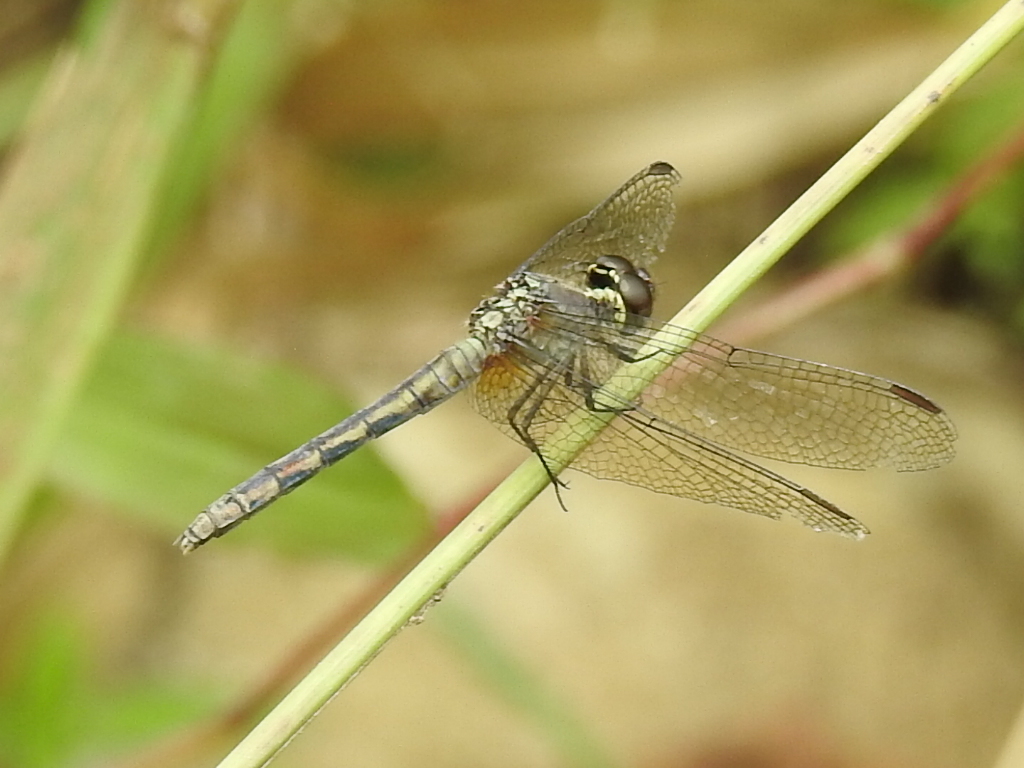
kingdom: Animalia
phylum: Arthropoda
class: Insecta
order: Odonata
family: Libellulidae
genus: Erythrodiplax
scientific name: Erythrodiplax fusca
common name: Red-faced dragonlet
